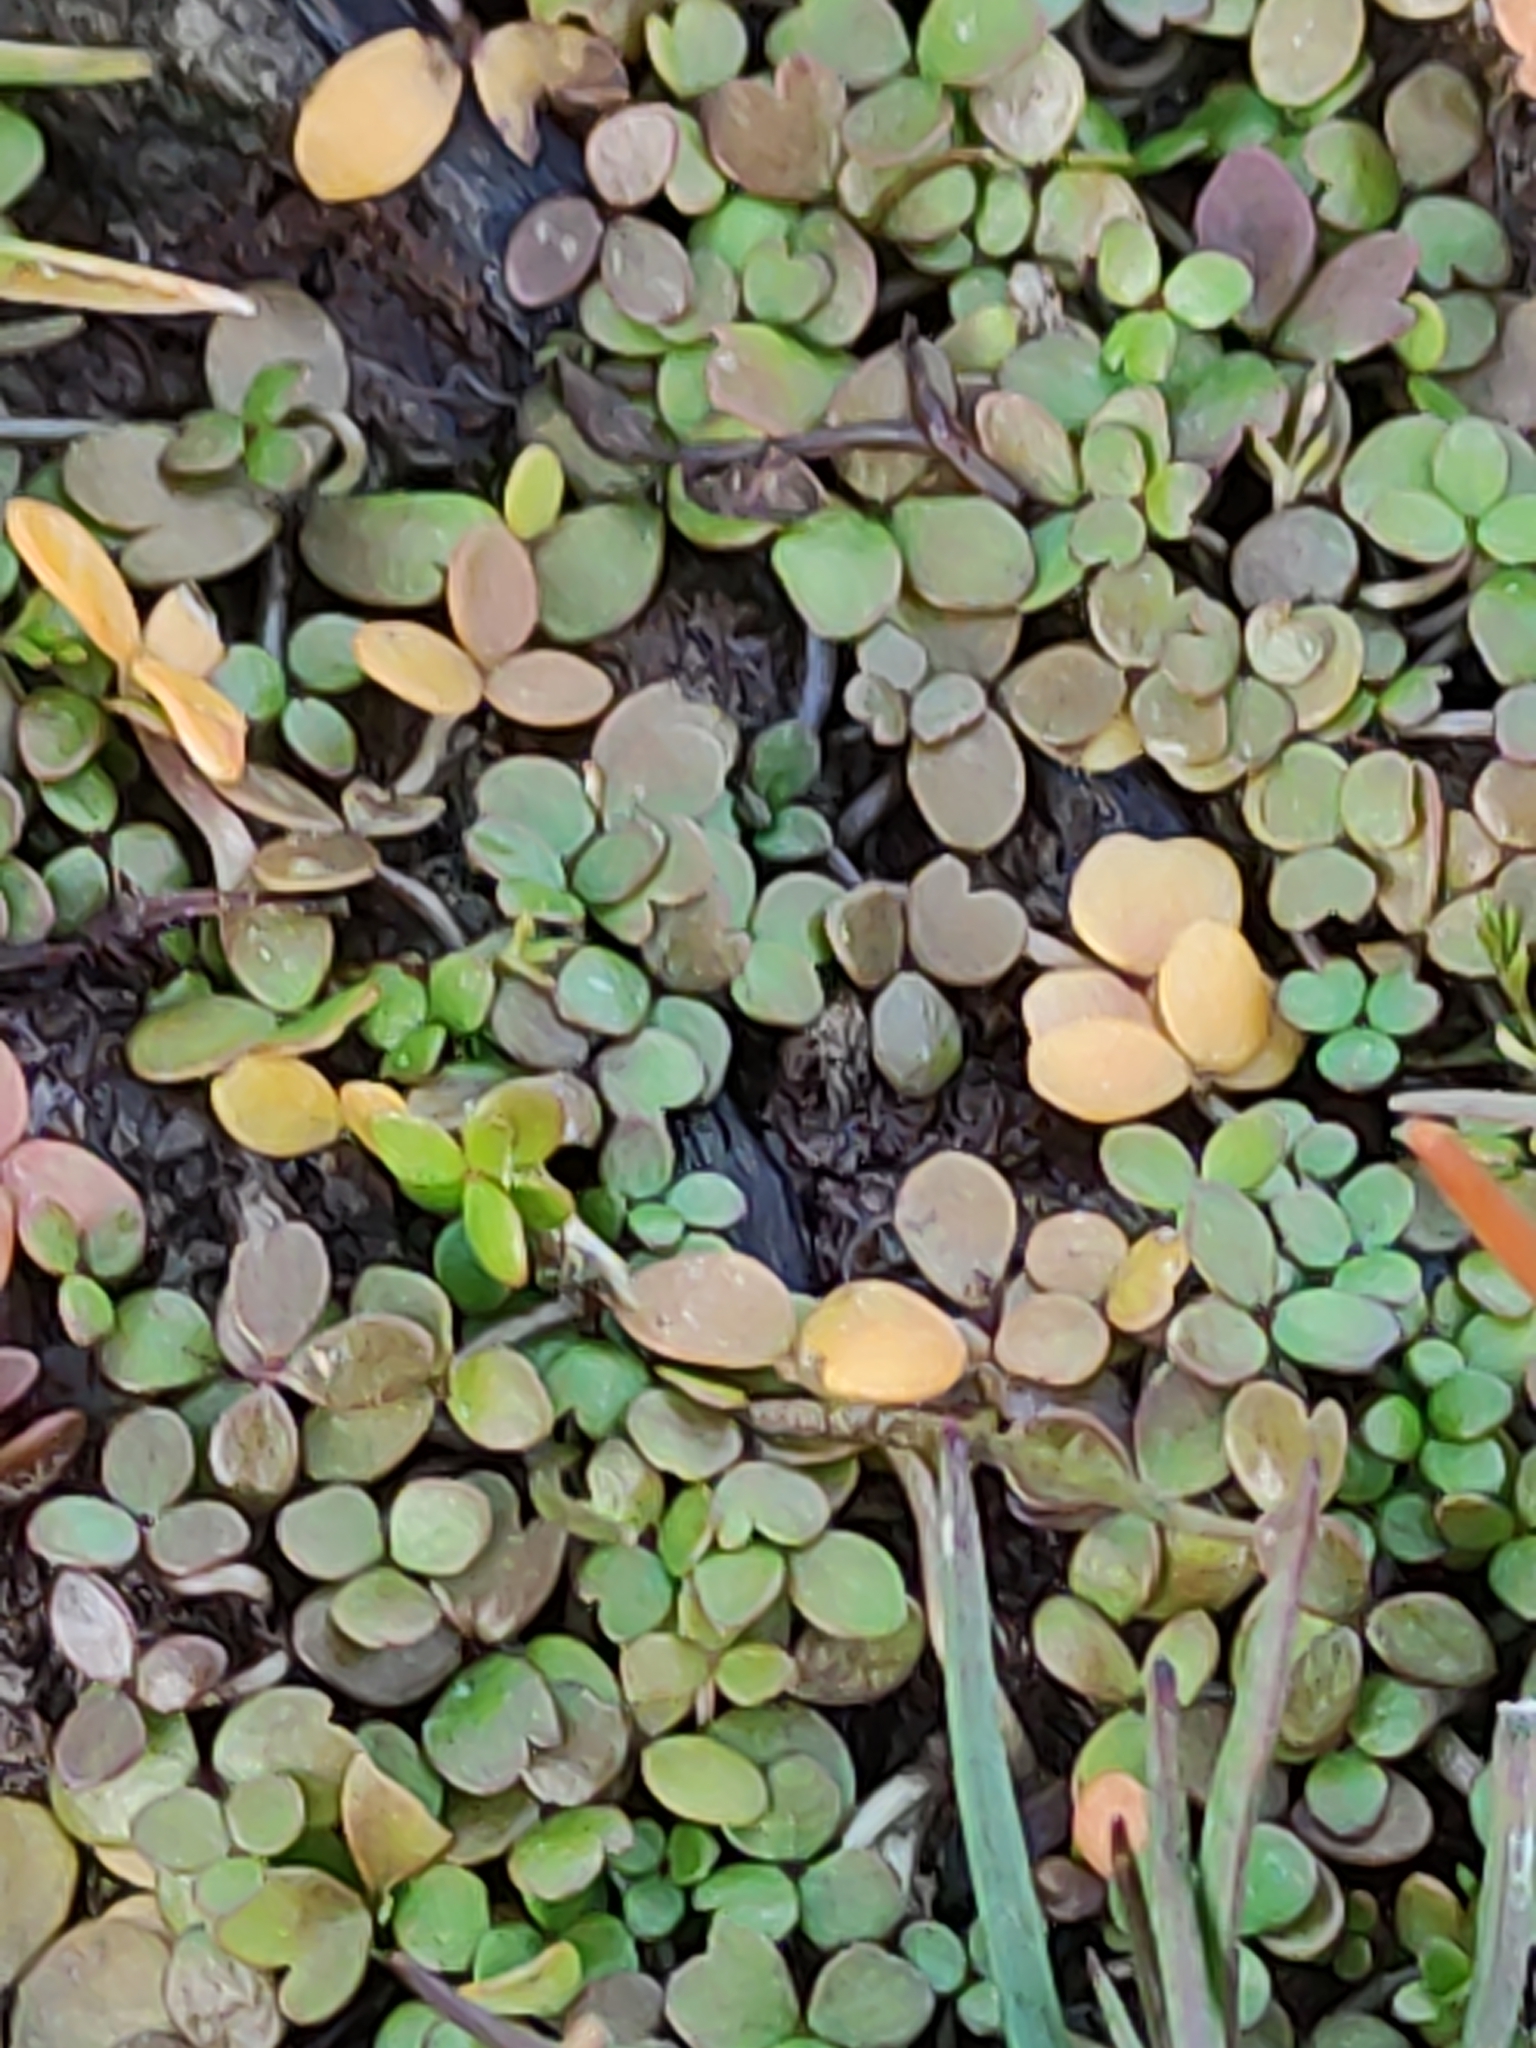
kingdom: Plantae
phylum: Tracheophyta
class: Magnoliopsida
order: Apiales
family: Araliaceae
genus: Hydrocotyle
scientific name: Hydrocotyle hydrophila
